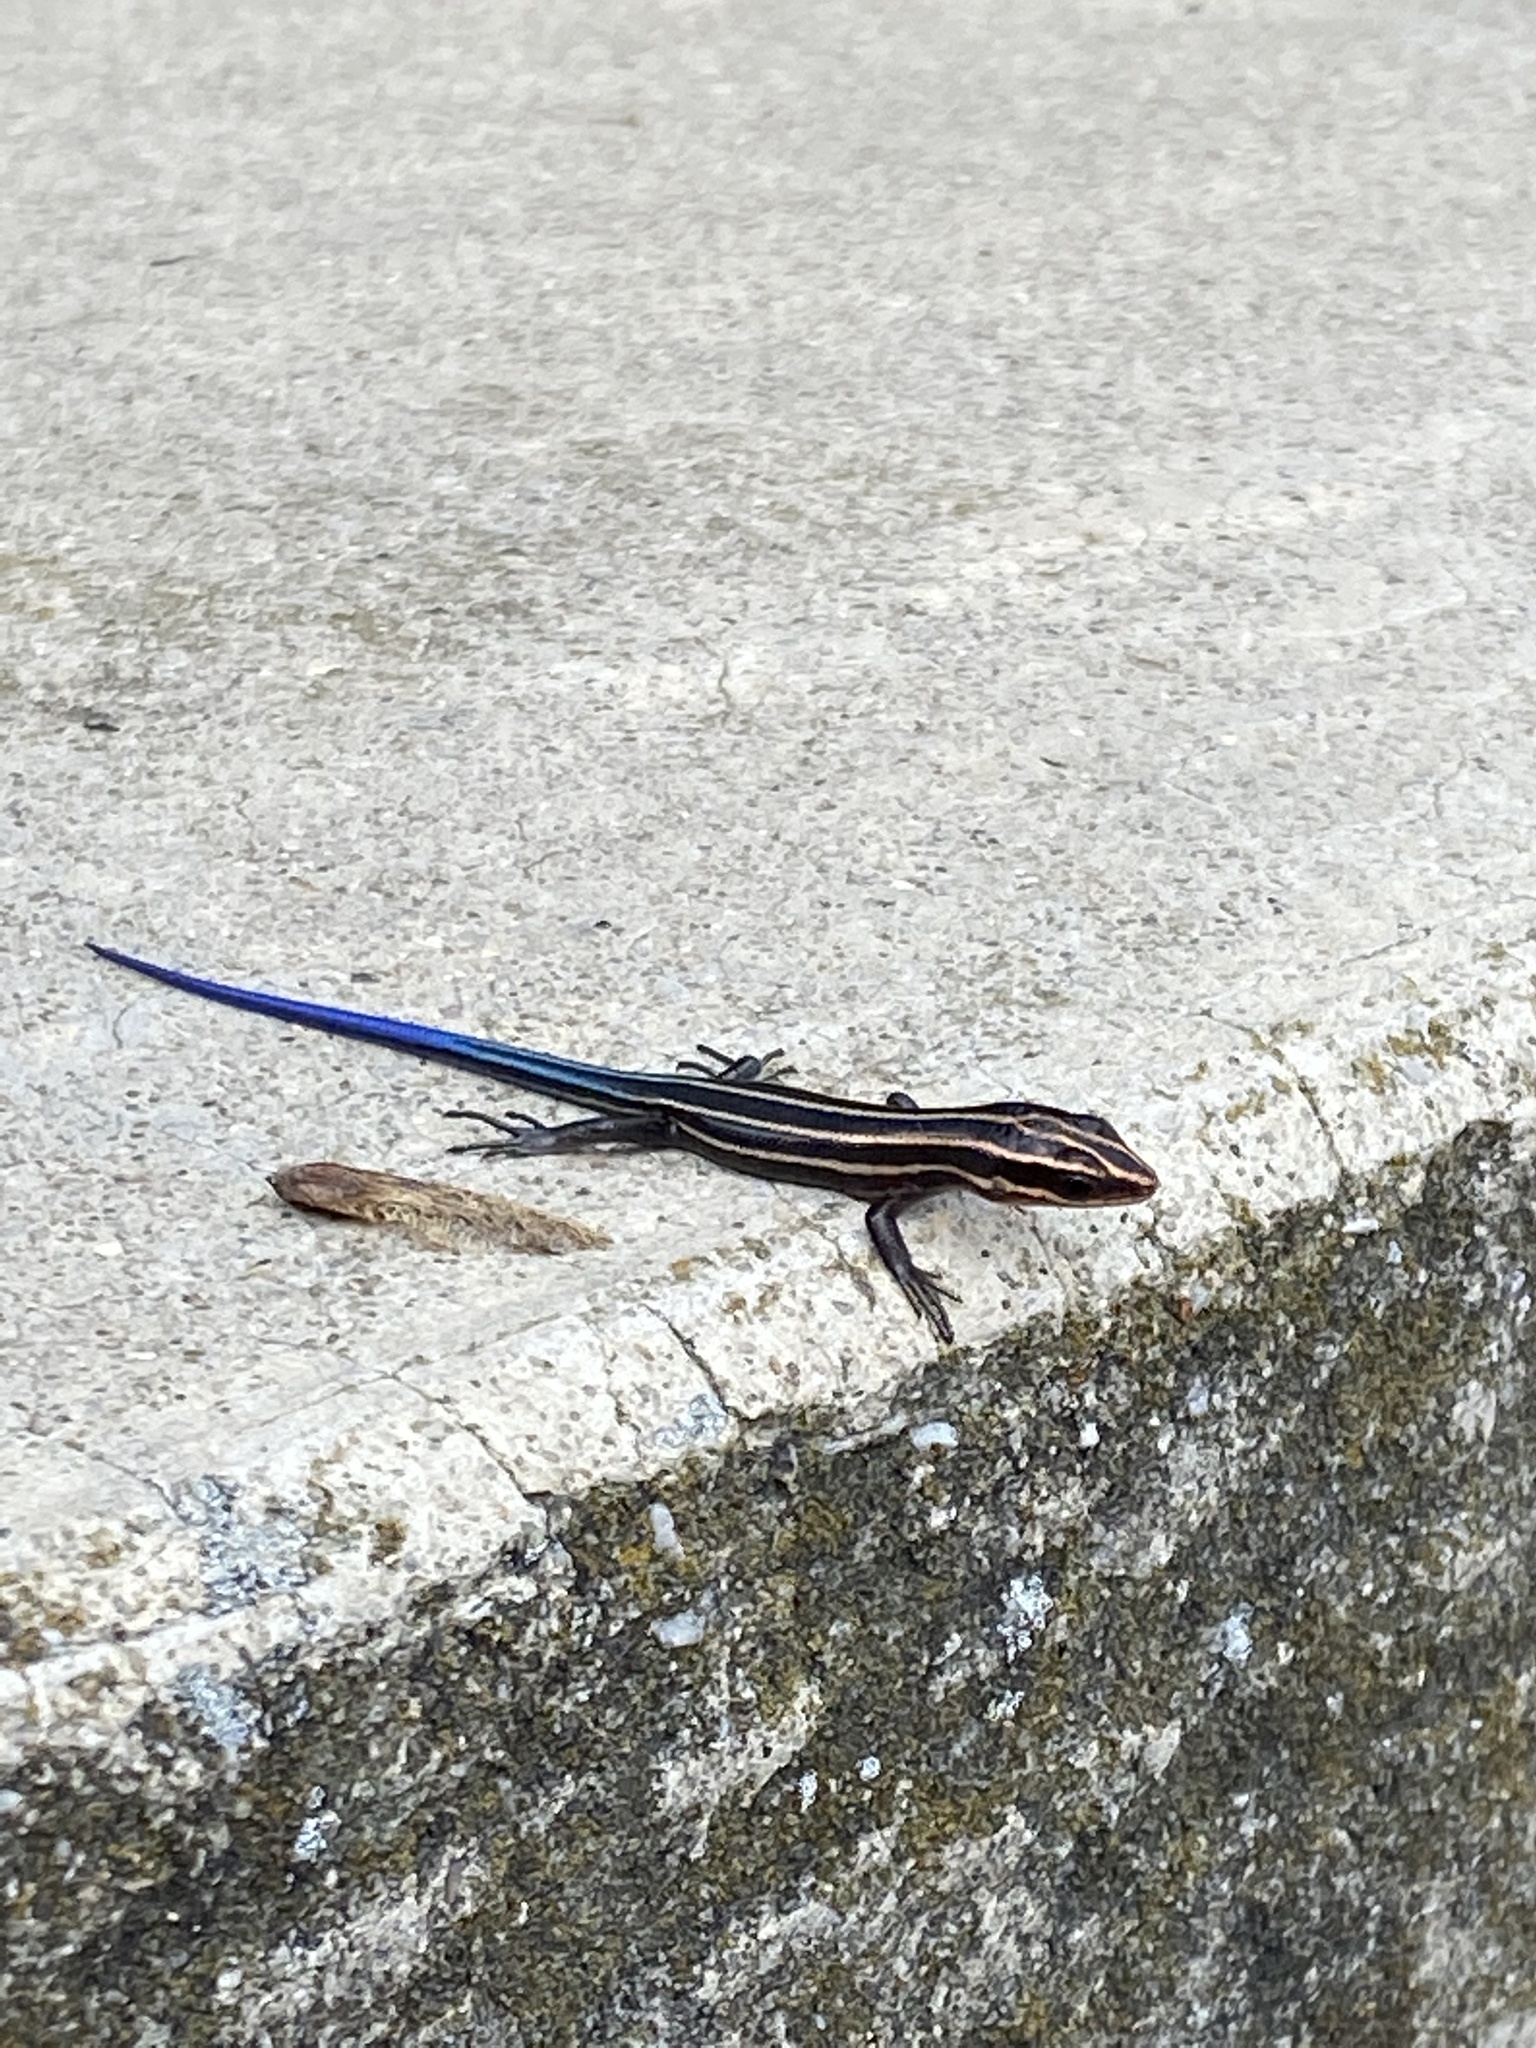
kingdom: Animalia
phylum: Chordata
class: Squamata
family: Scincidae
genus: Plestiodon
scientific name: Plestiodon fasciatus
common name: Five-lined skink
